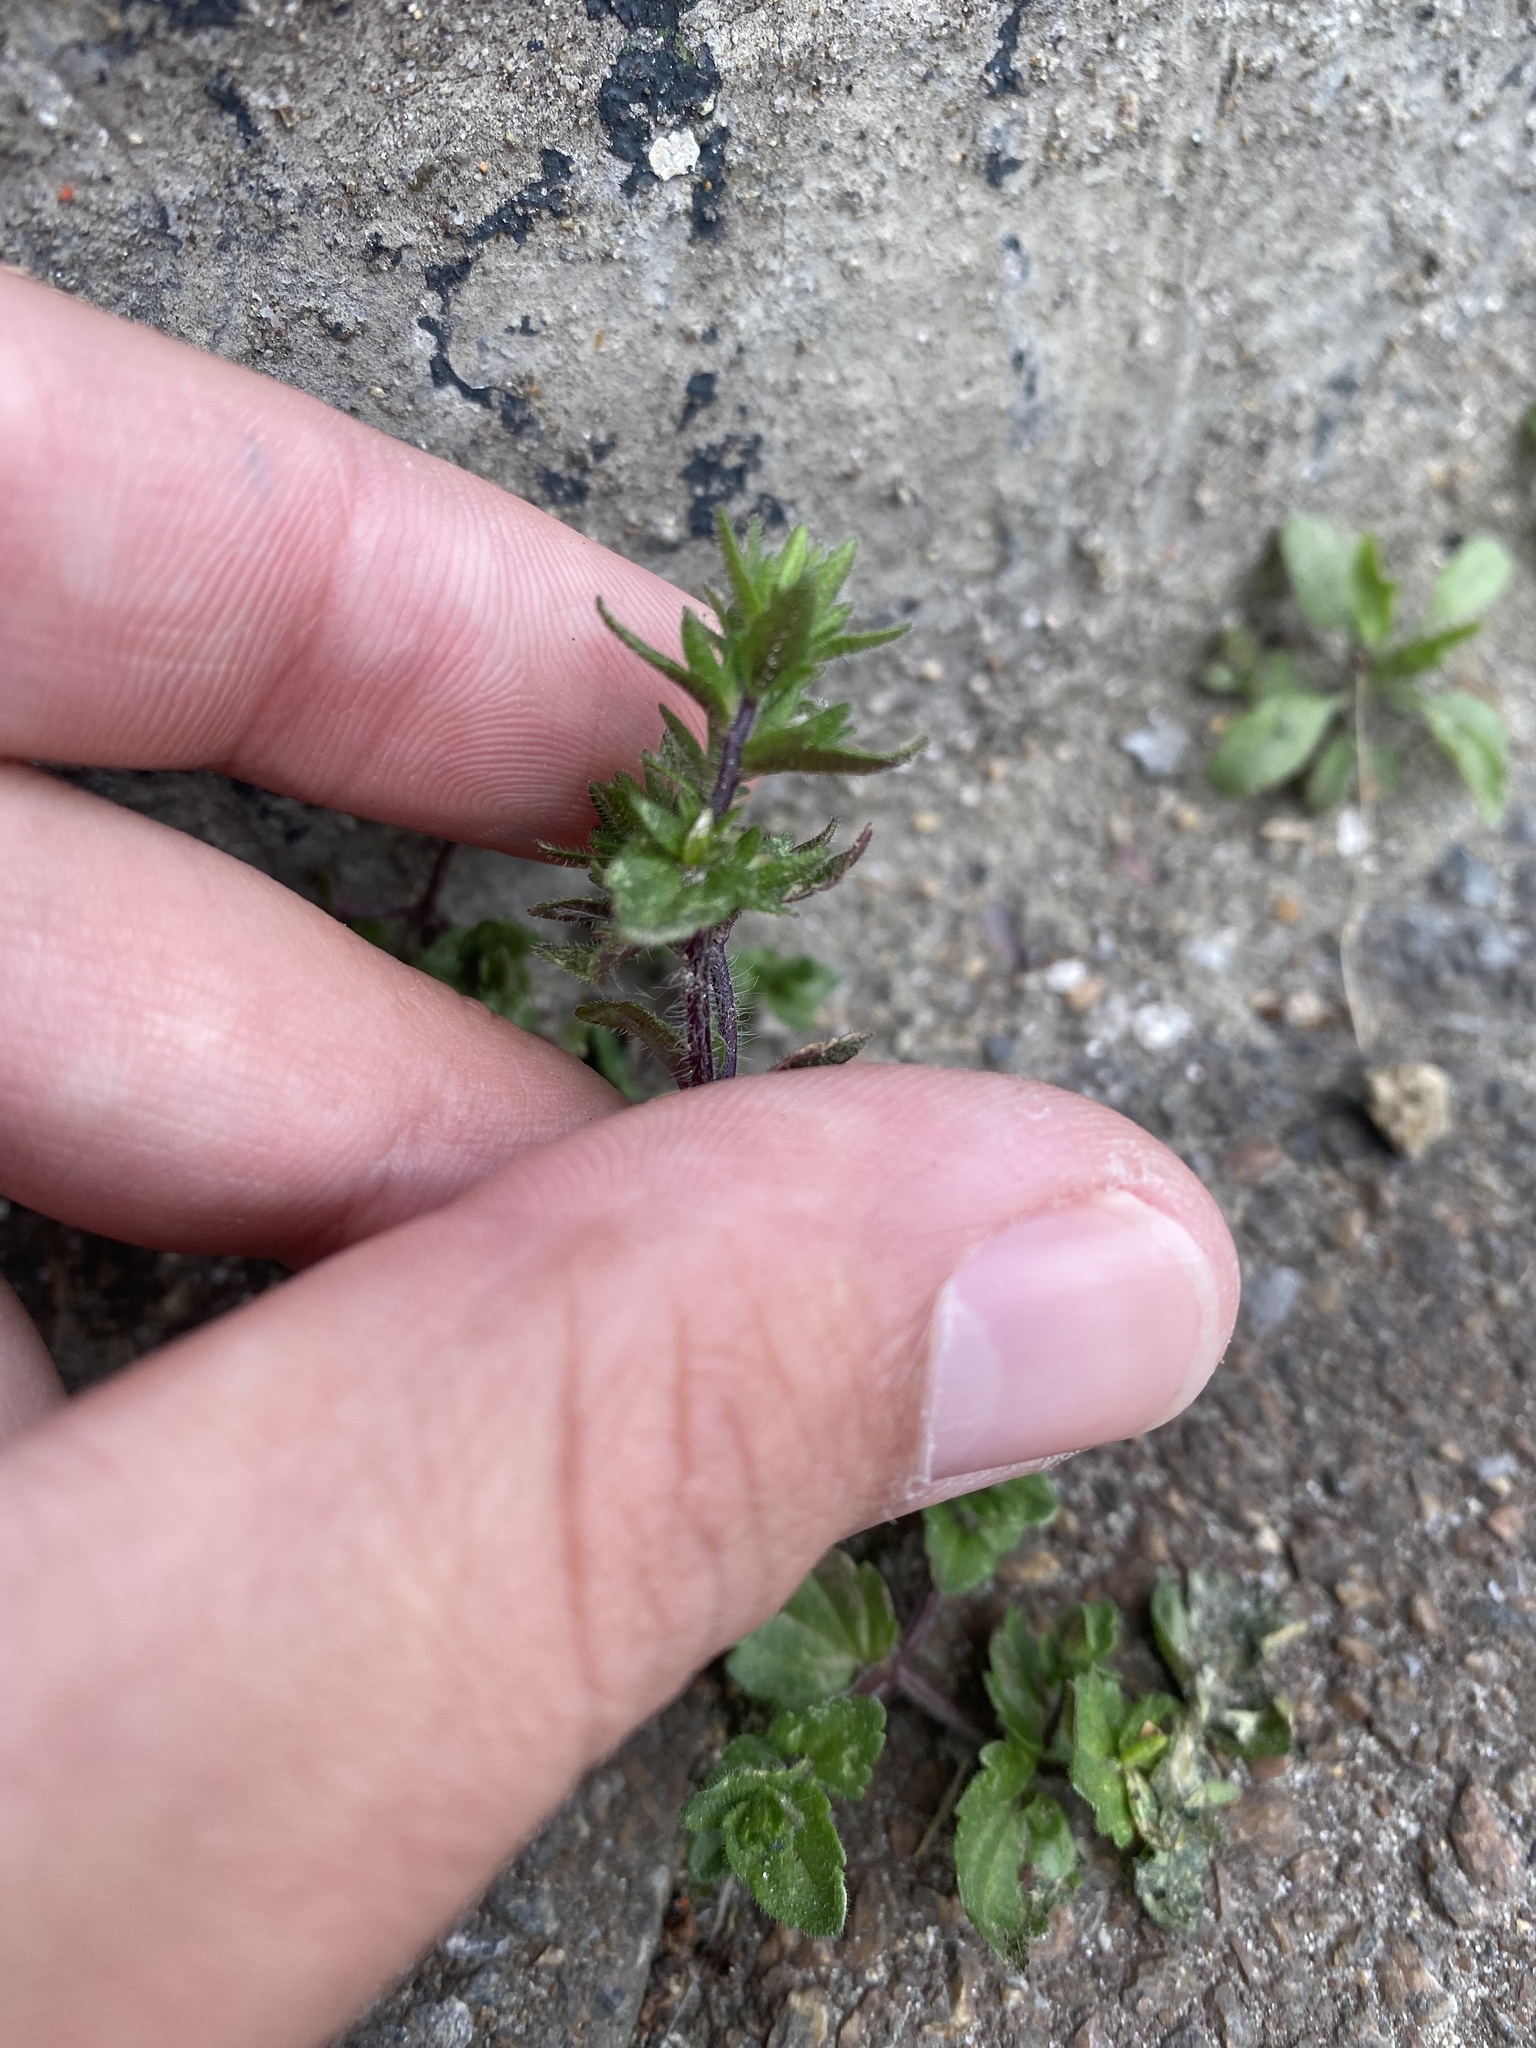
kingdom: Plantae
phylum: Tracheophyta
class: Magnoliopsida
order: Lamiales
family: Plantaginaceae
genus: Veronica
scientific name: Veronica arvensis
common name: Corn speedwell
